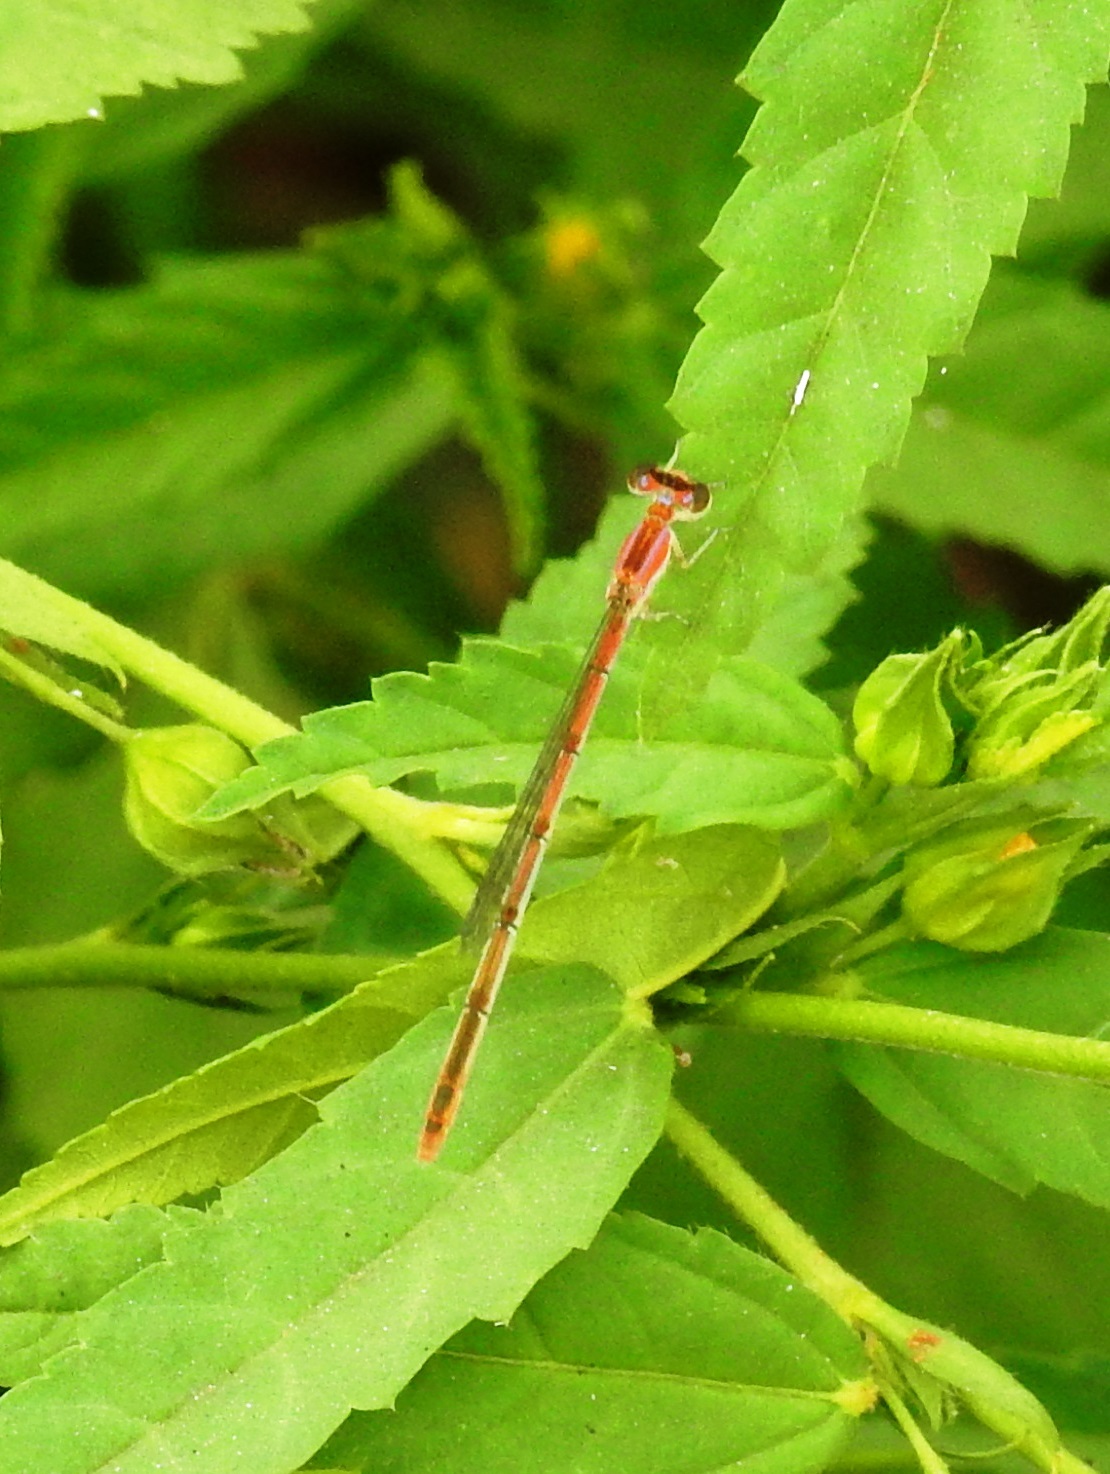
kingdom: Animalia
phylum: Arthropoda
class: Insecta
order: Odonata
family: Coenagrionidae
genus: Agriocnemis
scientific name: Agriocnemis pygmaea
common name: Pygmy wisp
